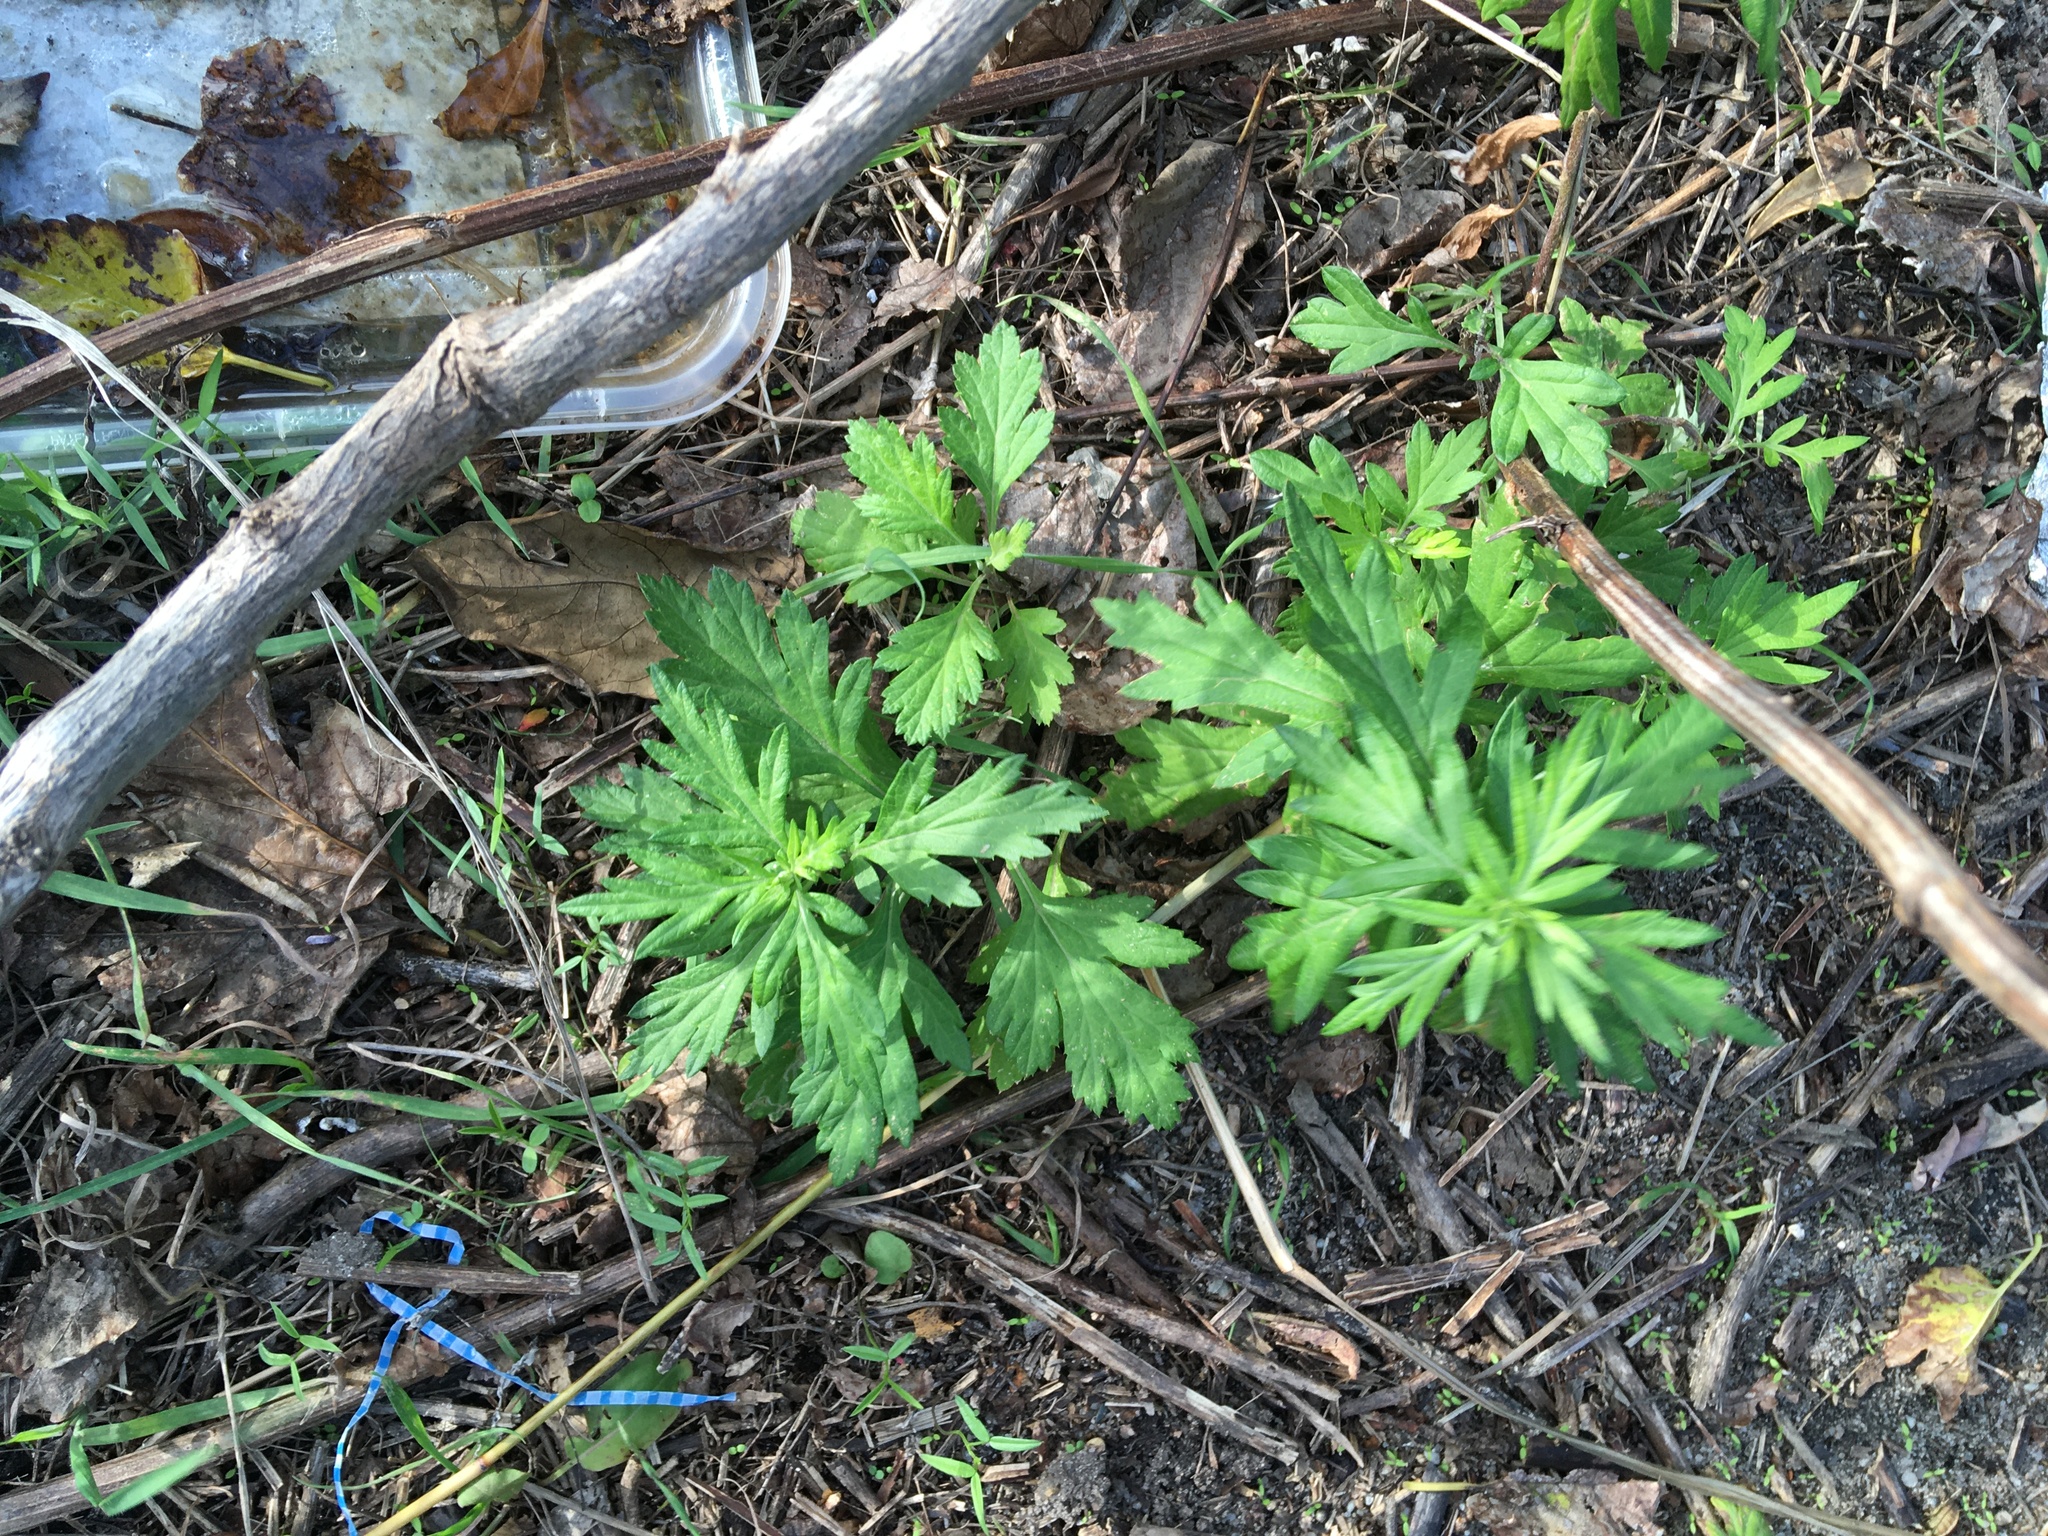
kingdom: Plantae
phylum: Tracheophyta
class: Magnoliopsida
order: Asterales
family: Asteraceae
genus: Artemisia
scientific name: Artemisia vulgaris
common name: Mugwort
